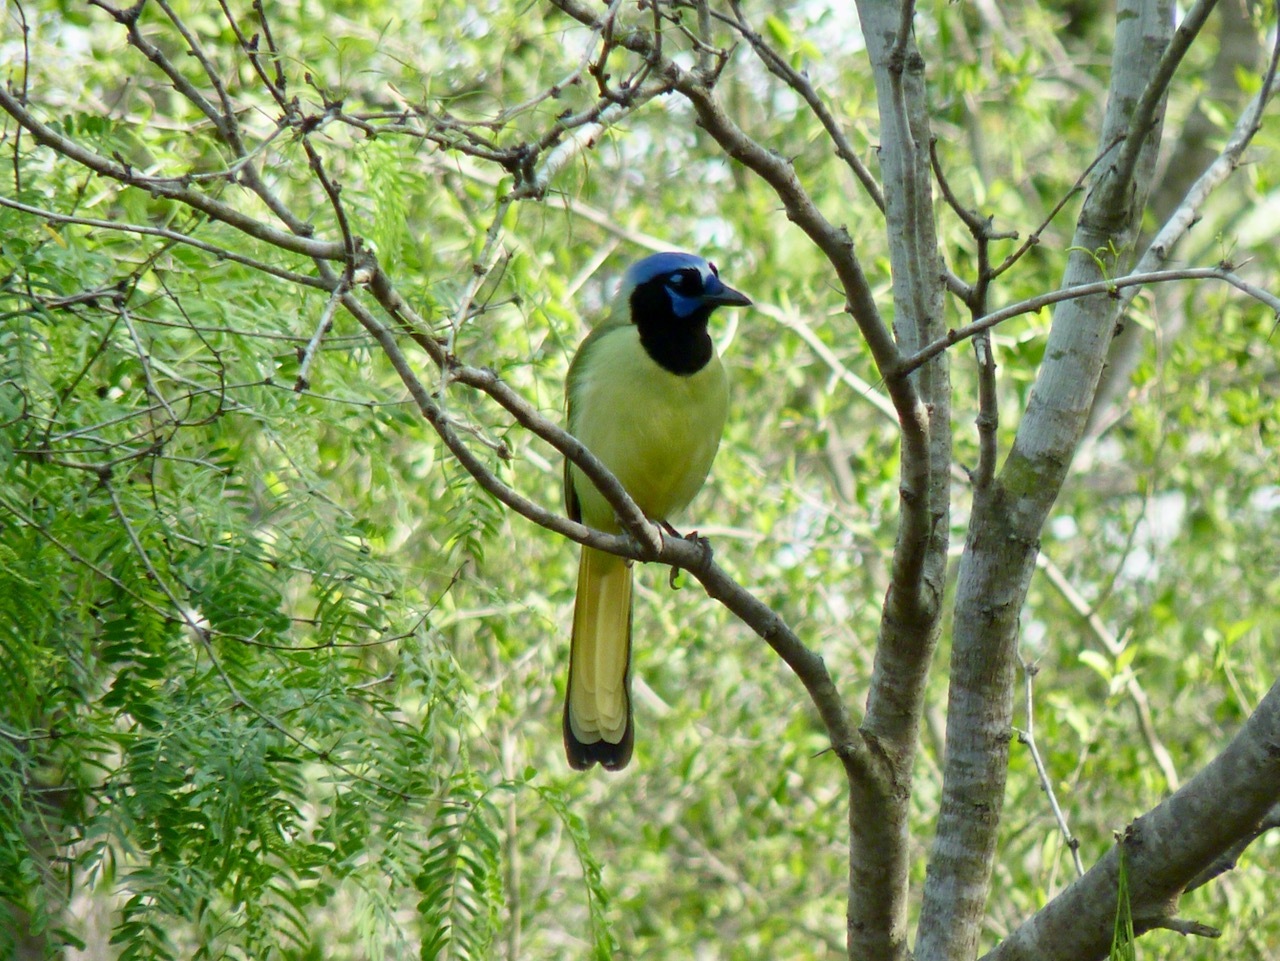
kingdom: Animalia
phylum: Chordata
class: Aves
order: Passeriformes
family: Corvidae
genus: Cyanocorax
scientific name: Cyanocorax yncas
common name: Green jay
